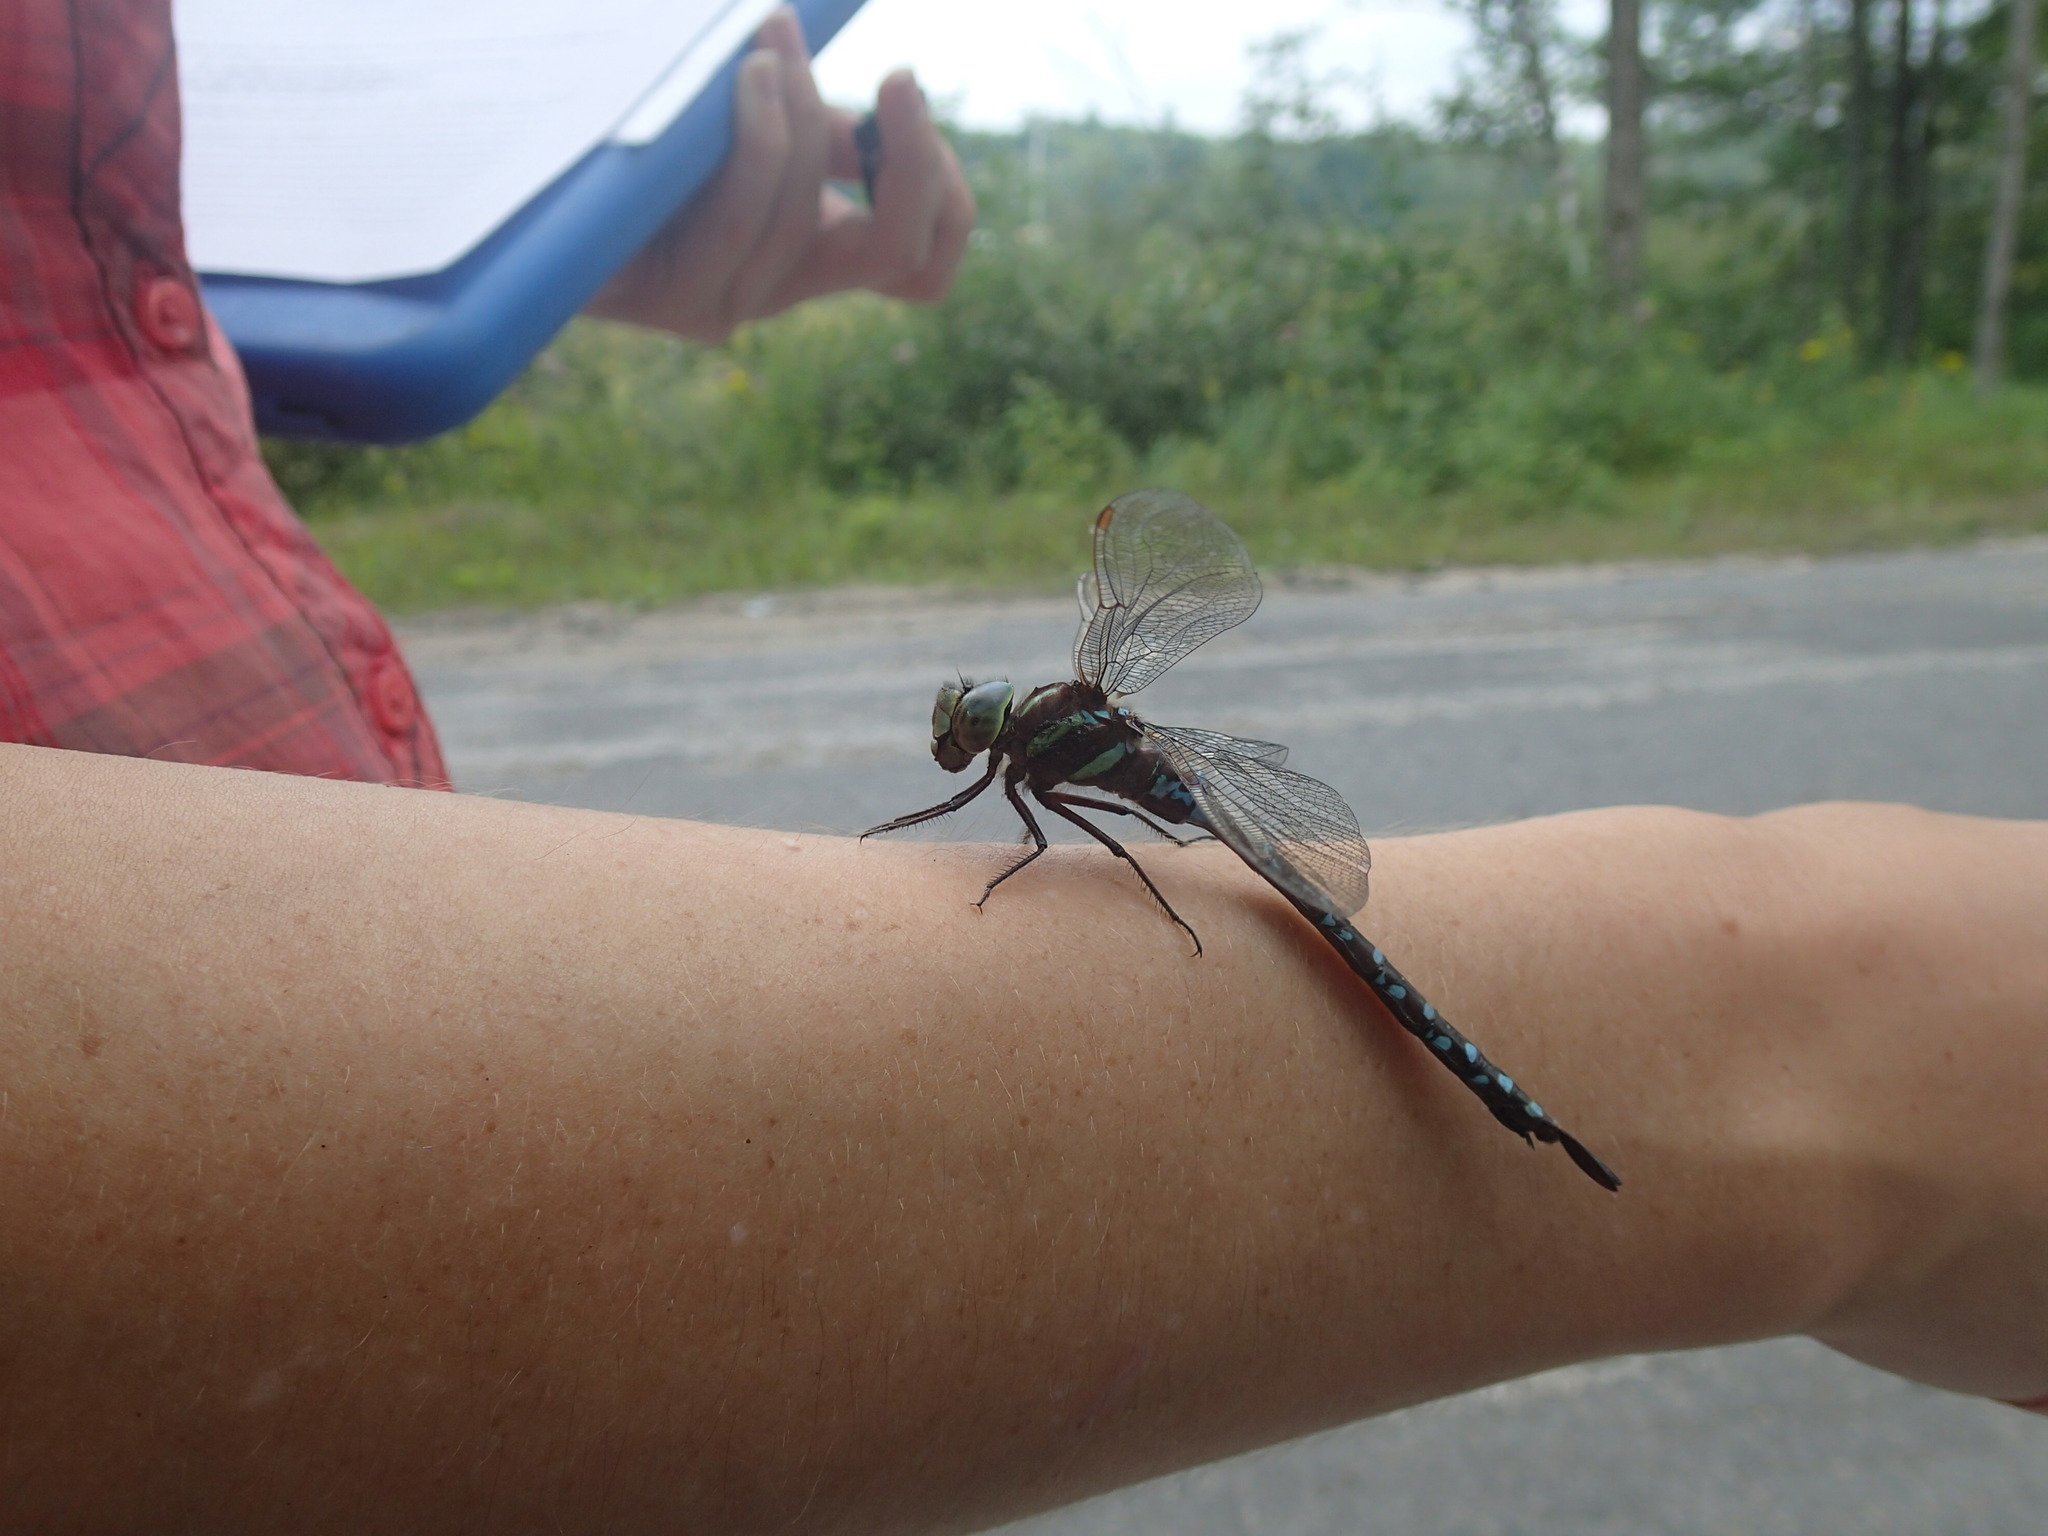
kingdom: Animalia
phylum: Arthropoda
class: Insecta
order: Odonata
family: Aeshnidae
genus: Aeshna
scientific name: Aeshna tuberculifera
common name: Aeschne à tubercules
